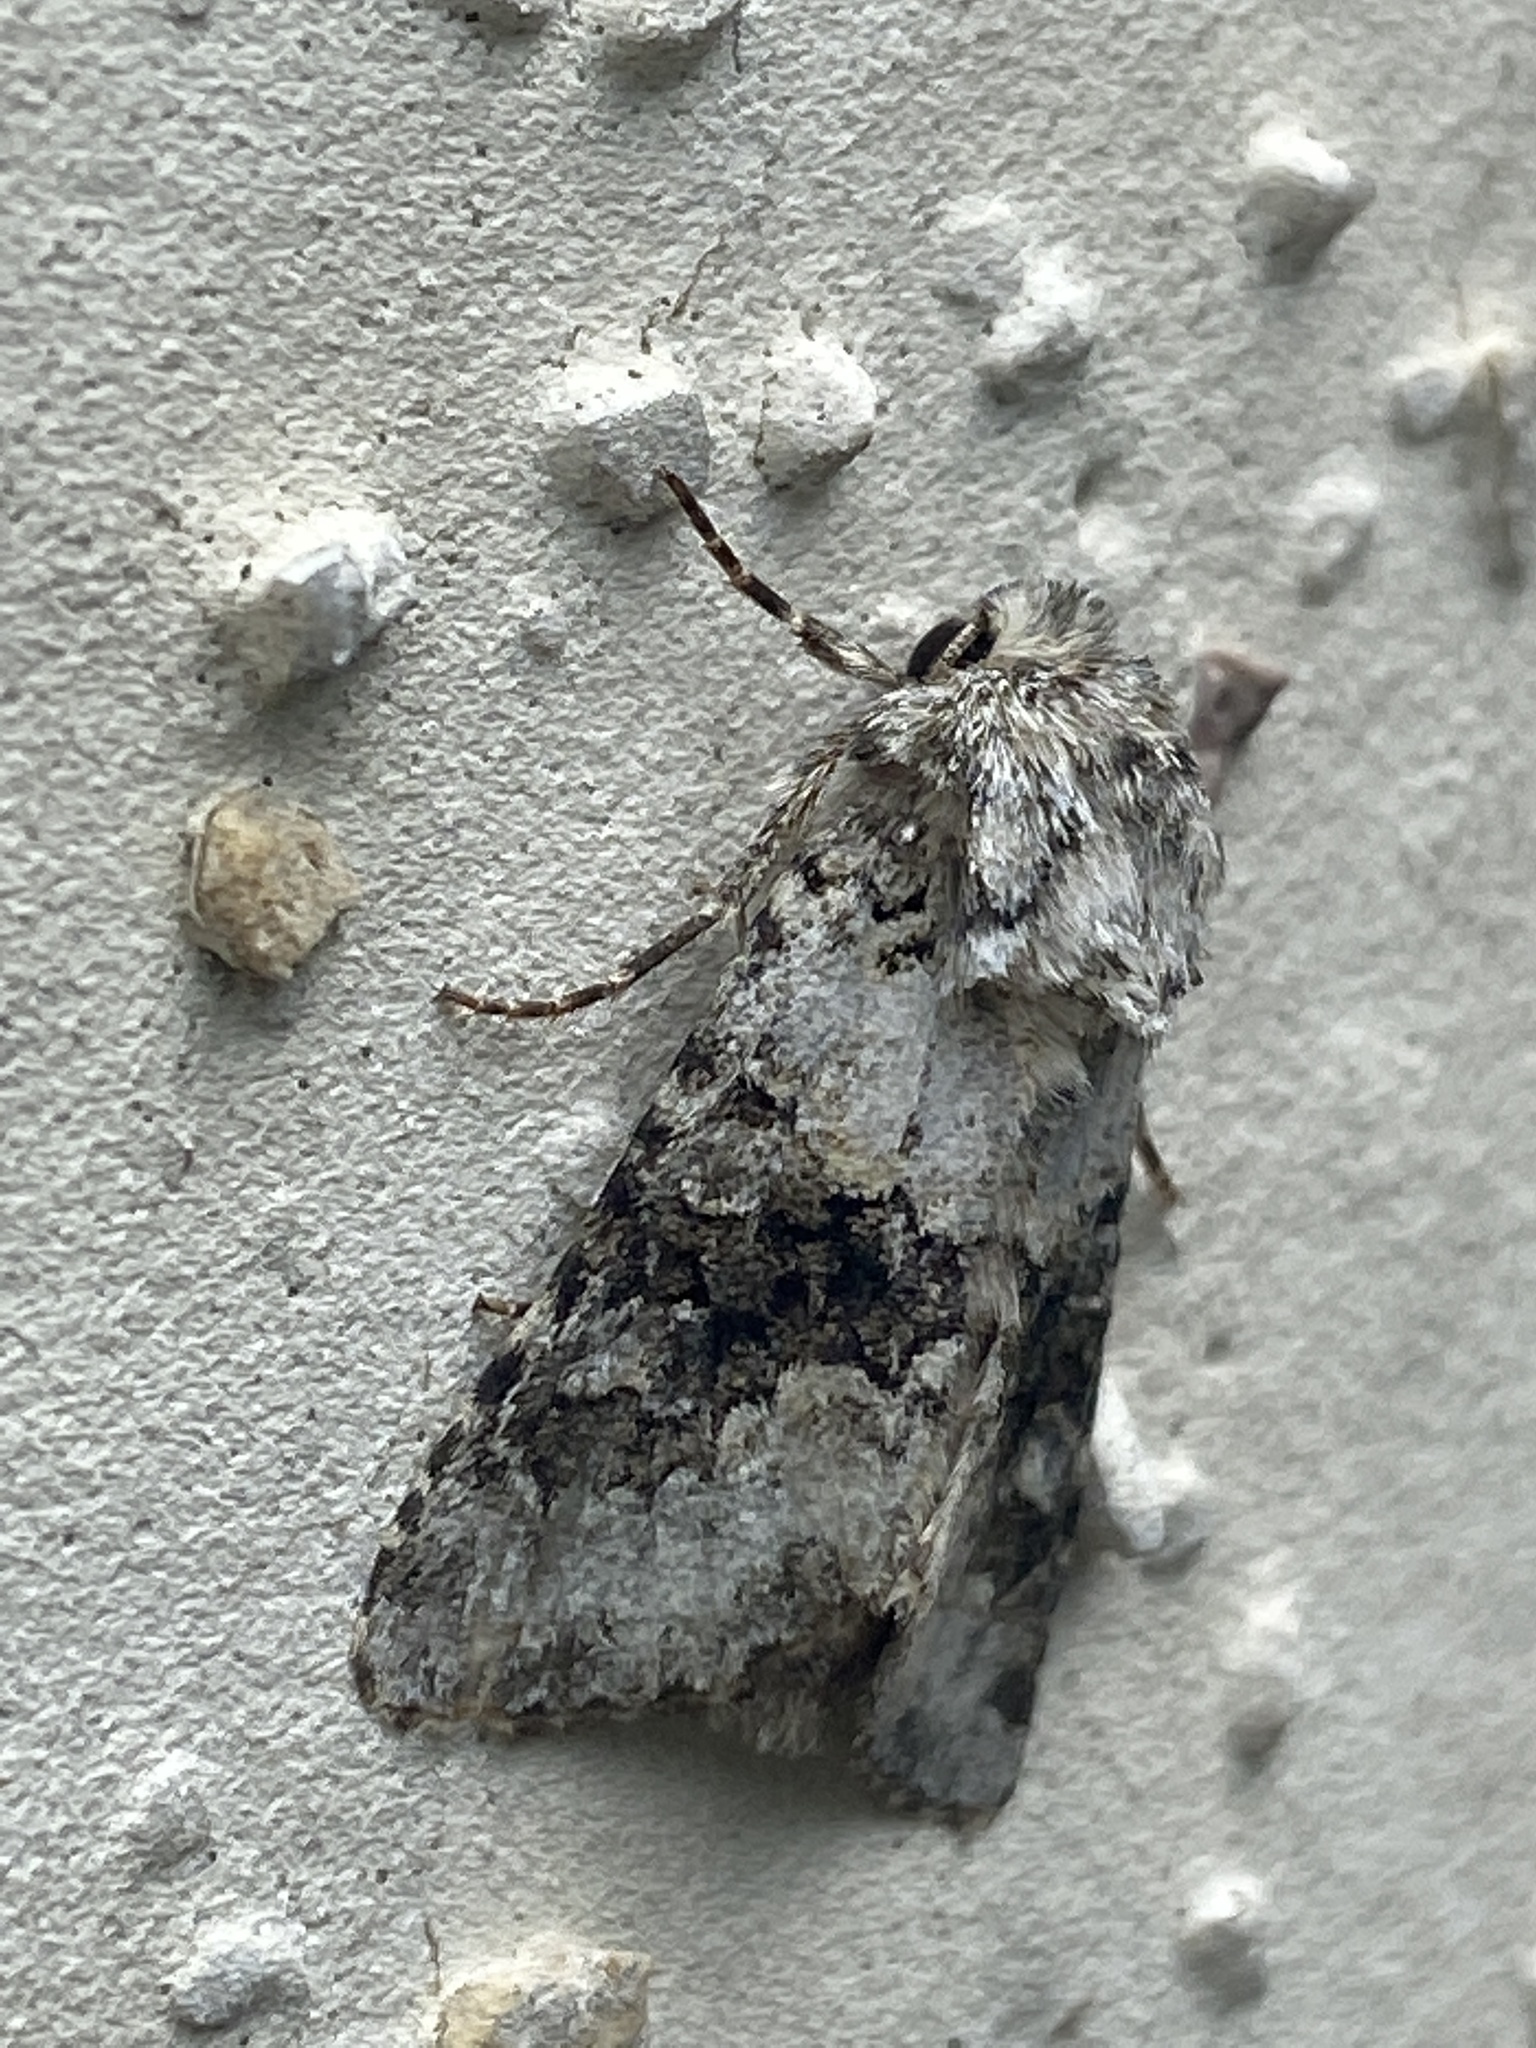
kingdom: Animalia
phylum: Arthropoda
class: Insecta
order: Lepidoptera
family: Noctuidae
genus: Hecatera
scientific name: Hecatera bicolorata
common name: Broad-barred white
